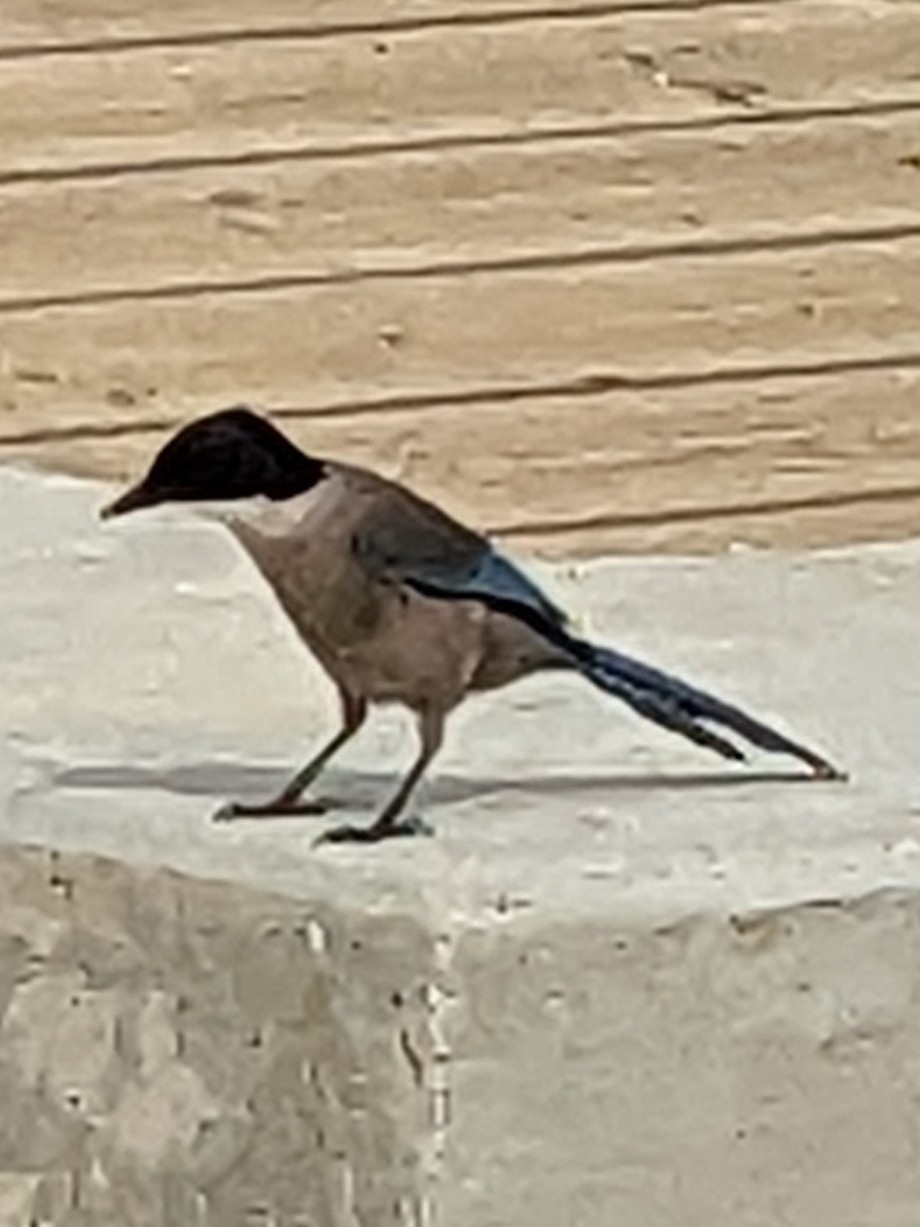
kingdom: Animalia
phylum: Chordata
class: Aves
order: Passeriformes
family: Corvidae
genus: Cyanopica
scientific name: Cyanopica cooki
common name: Iberian magpie
